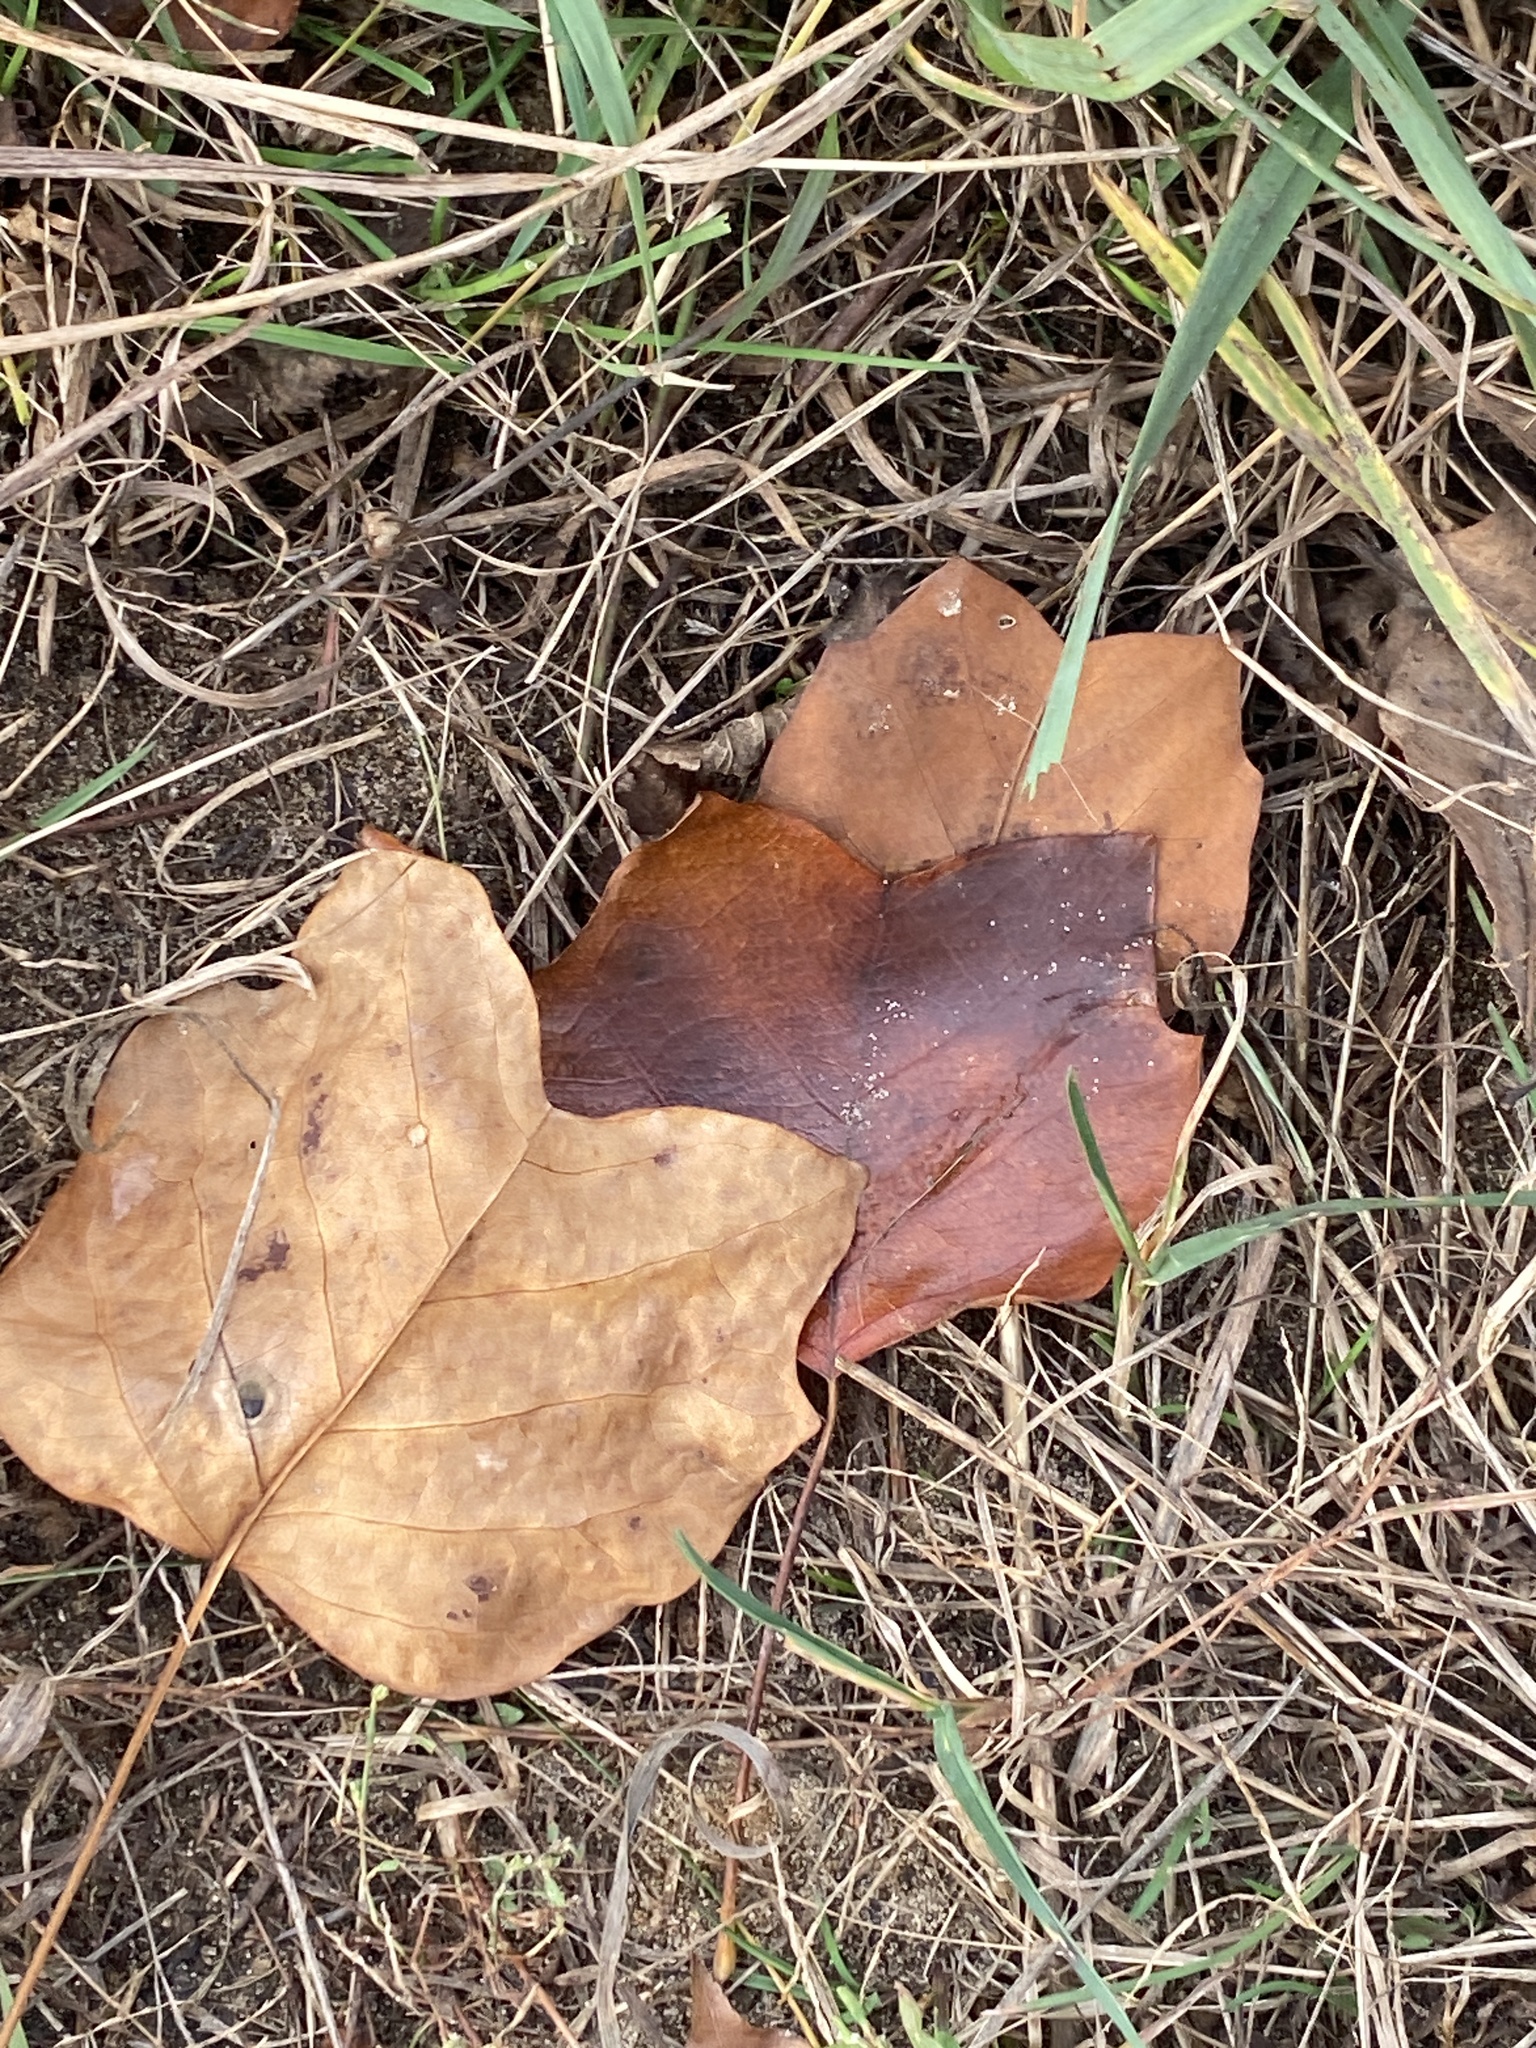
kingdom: Plantae
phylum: Tracheophyta
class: Magnoliopsida
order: Magnoliales
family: Magnoliaceae
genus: Liriodendron
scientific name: Liriodendron tulipifera
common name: Tulip tree
